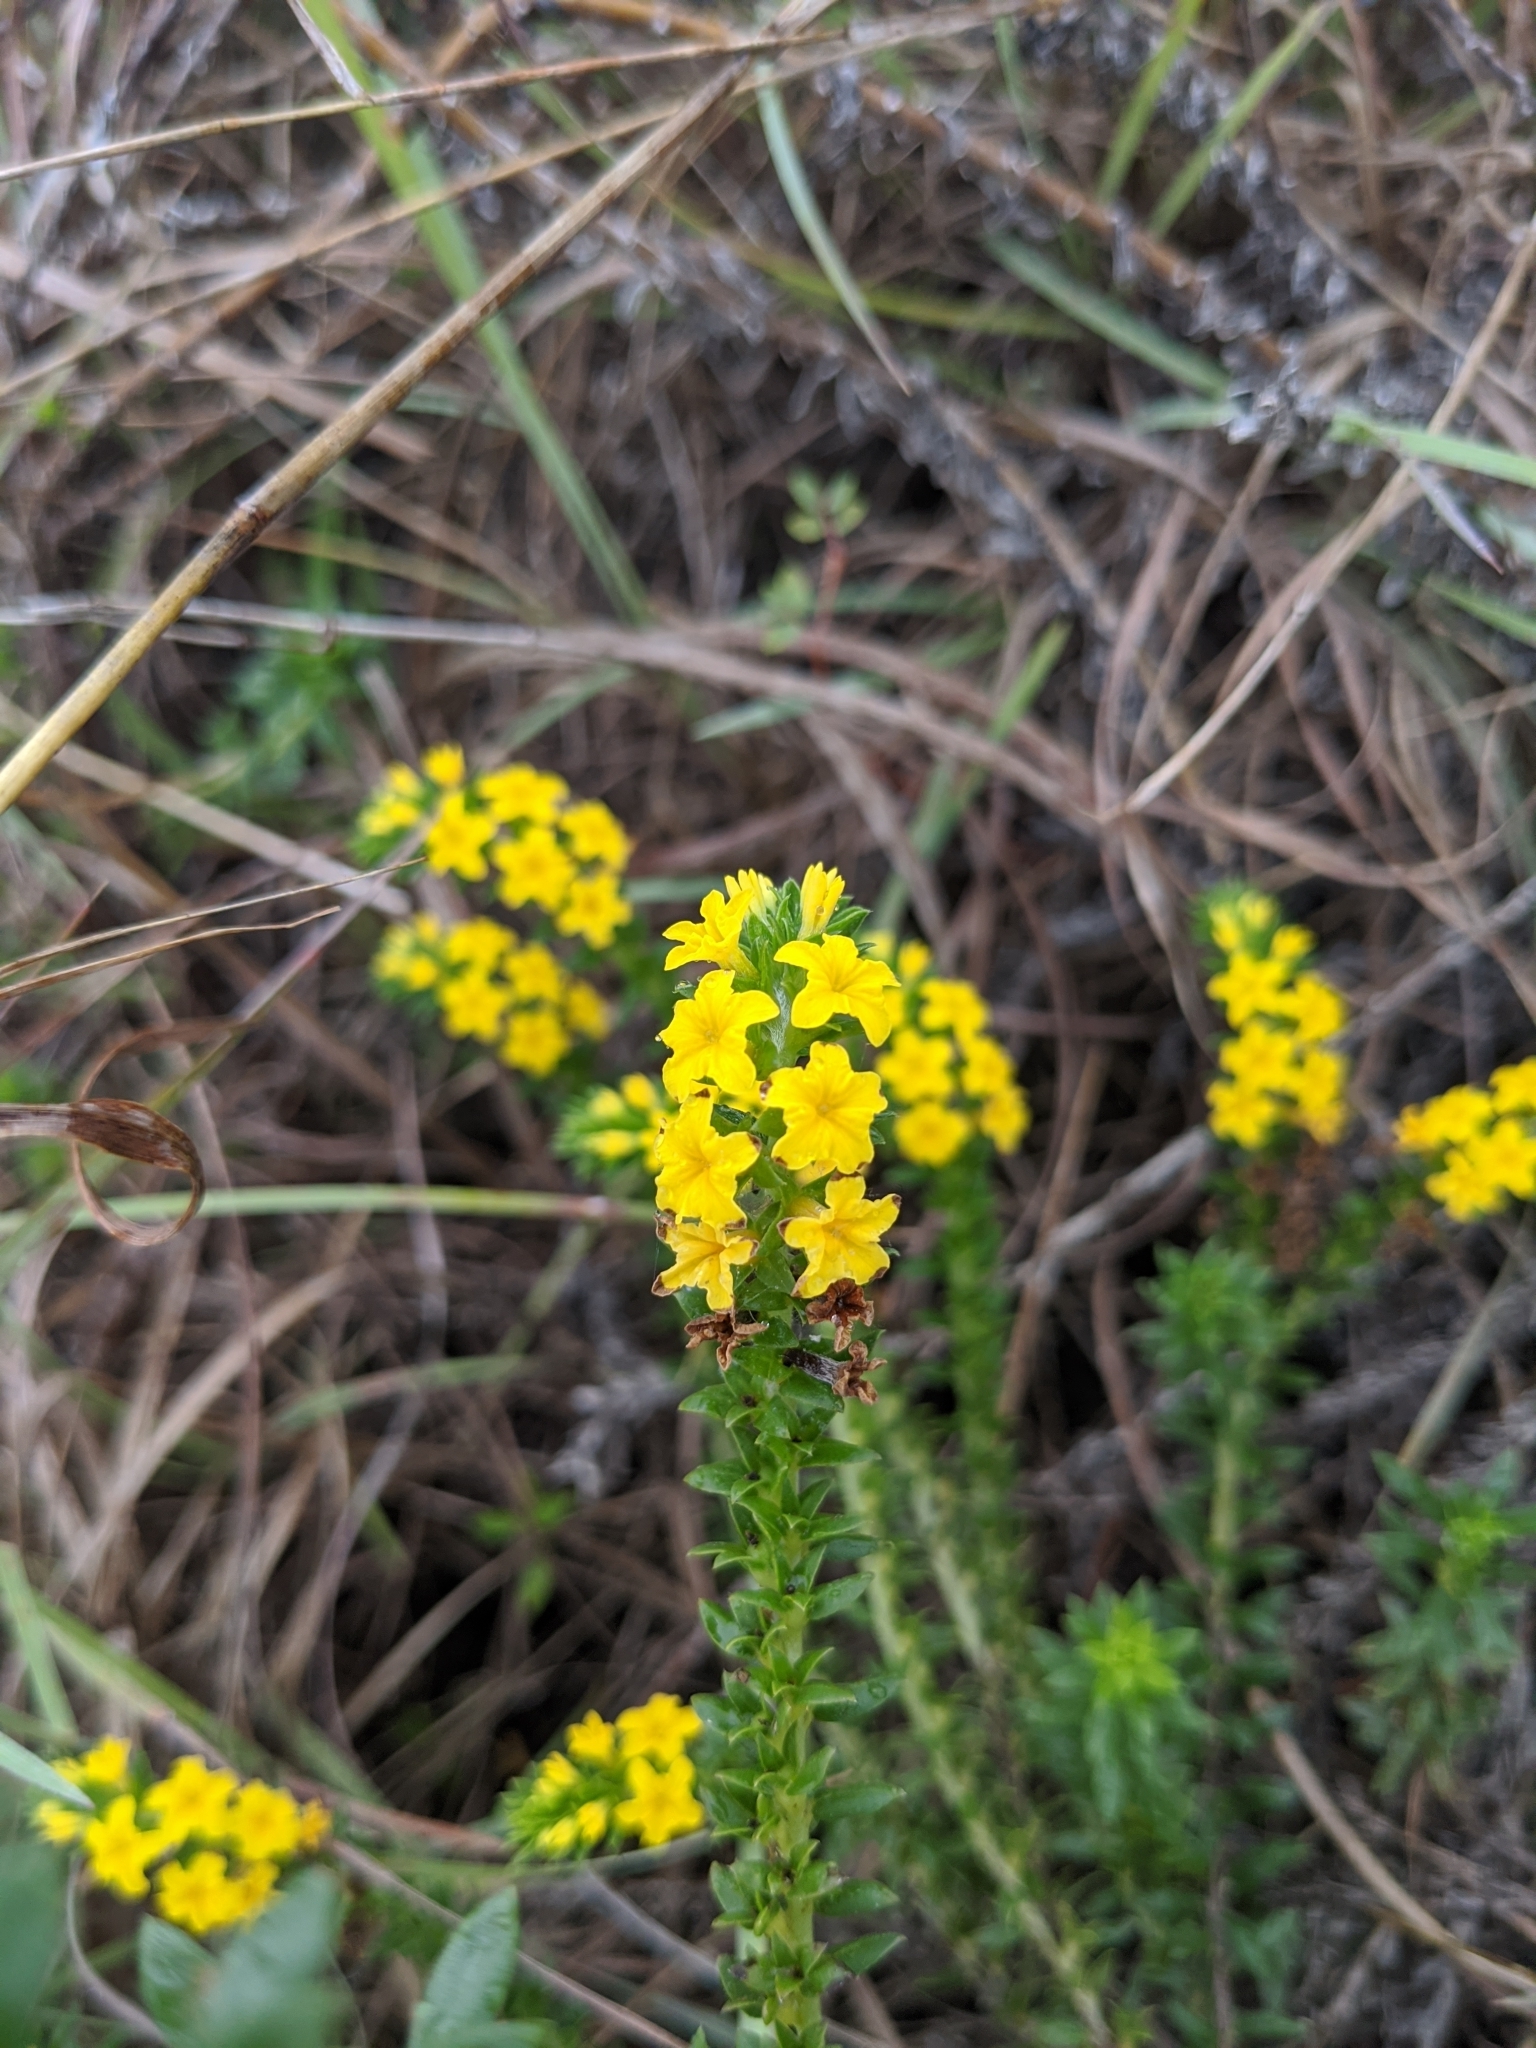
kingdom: Plantae
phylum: Tracheophyta
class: Magnoliopsida
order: Boraginales
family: Heliotropiaceae
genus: Euploca
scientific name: Euploca polyphylla
